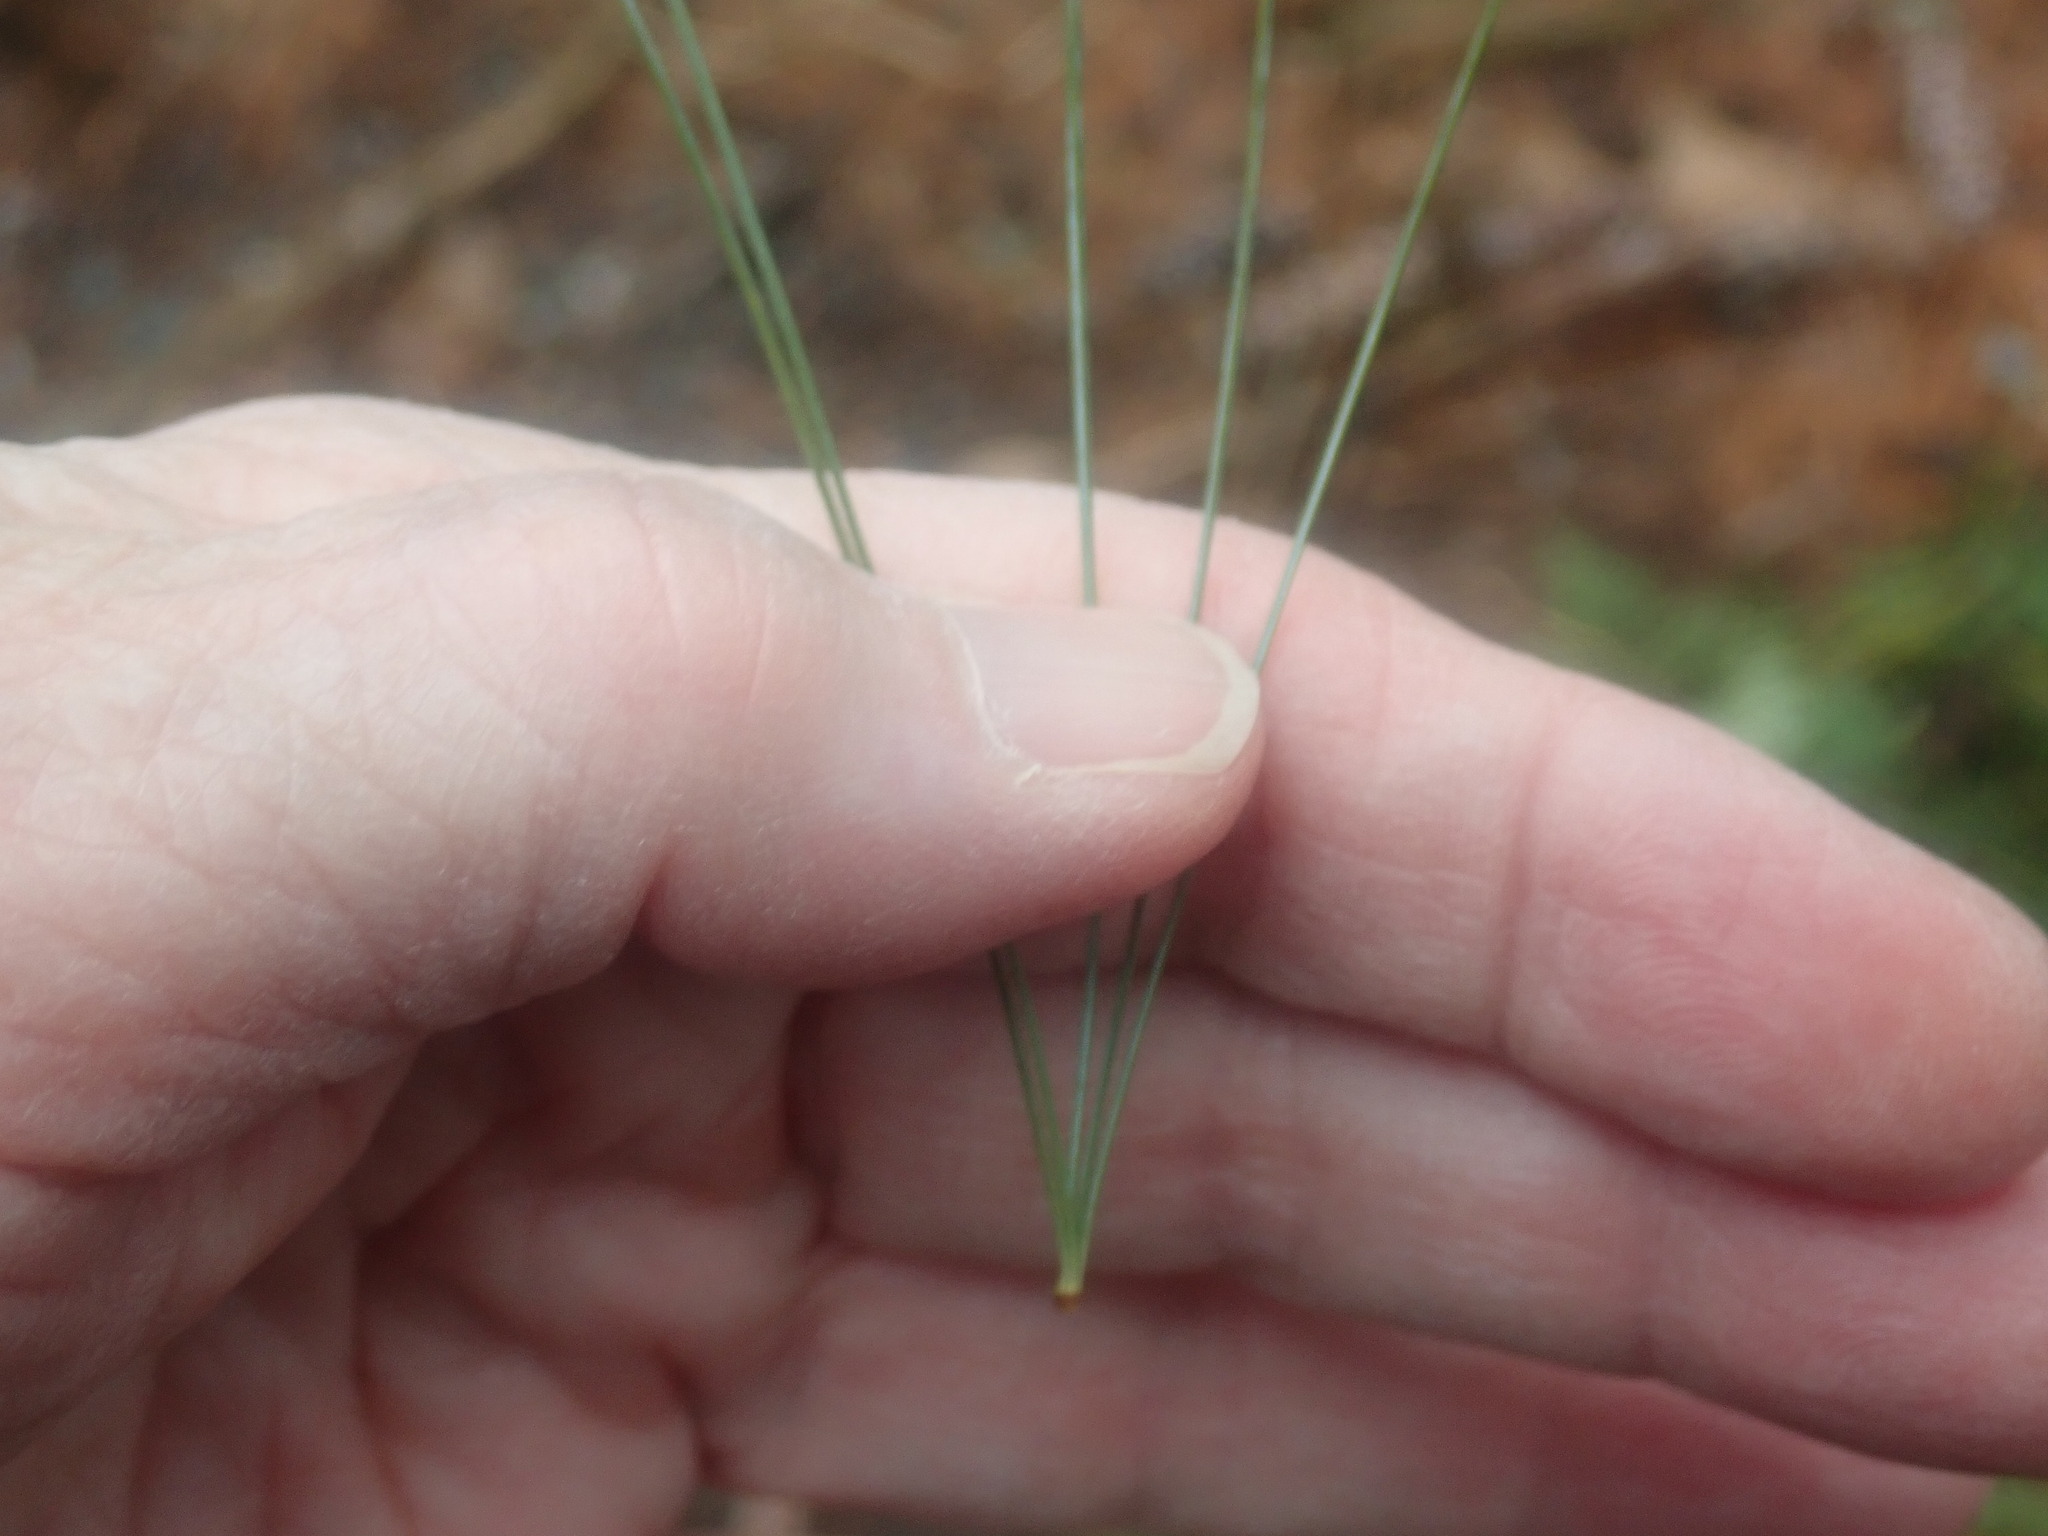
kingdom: Plantae
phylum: Tracheophyta
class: Pinopsida
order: Pinales
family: Pinaceae
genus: Pinus
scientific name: Pinus strobus
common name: Weymouth pine
